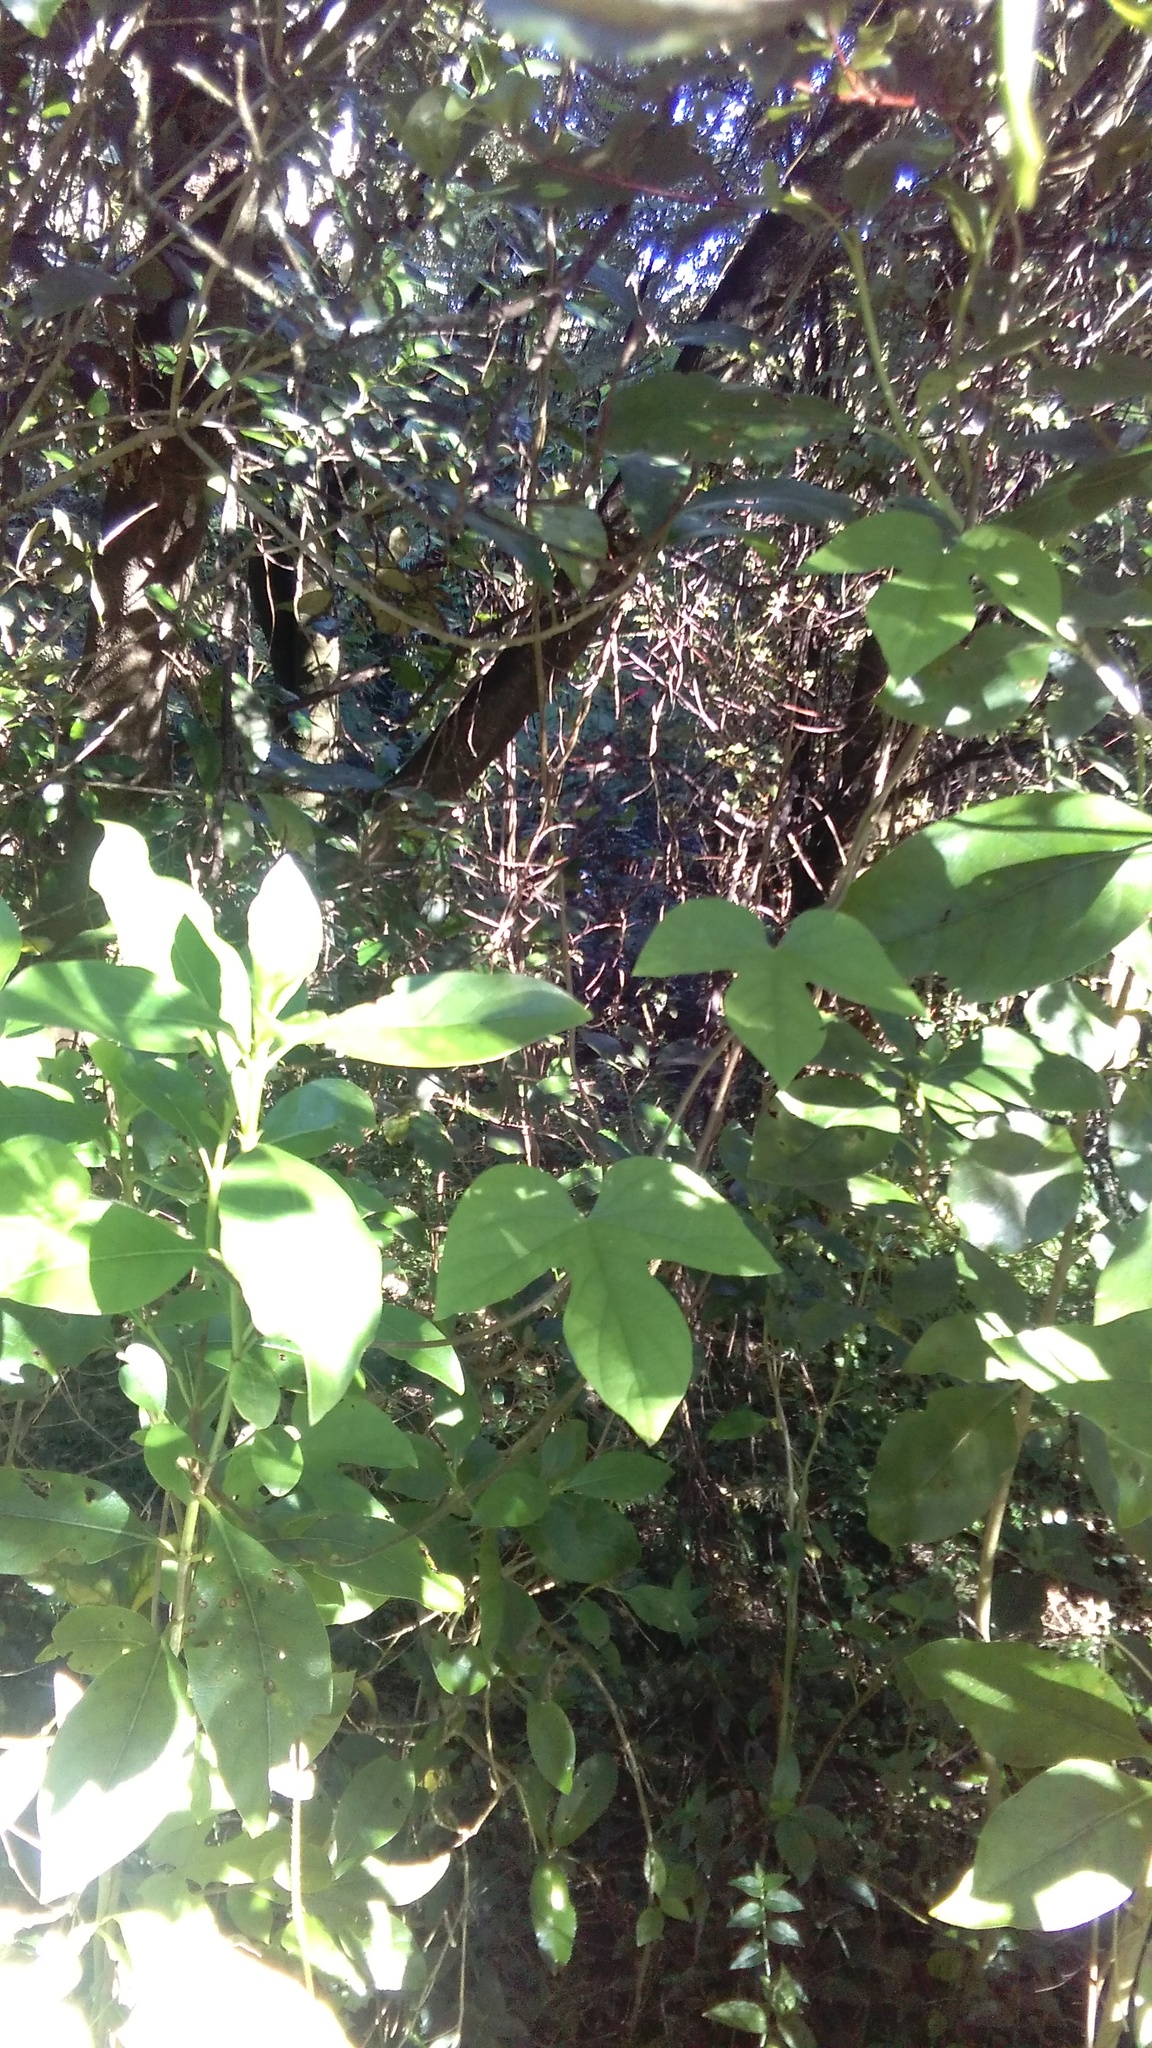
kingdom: Plantae
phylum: Tracheophyta
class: Magnoliopsida
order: Solanales
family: Convolvulaceae
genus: Ipomoea
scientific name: Ipomoea indica
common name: Blue dawnflower
